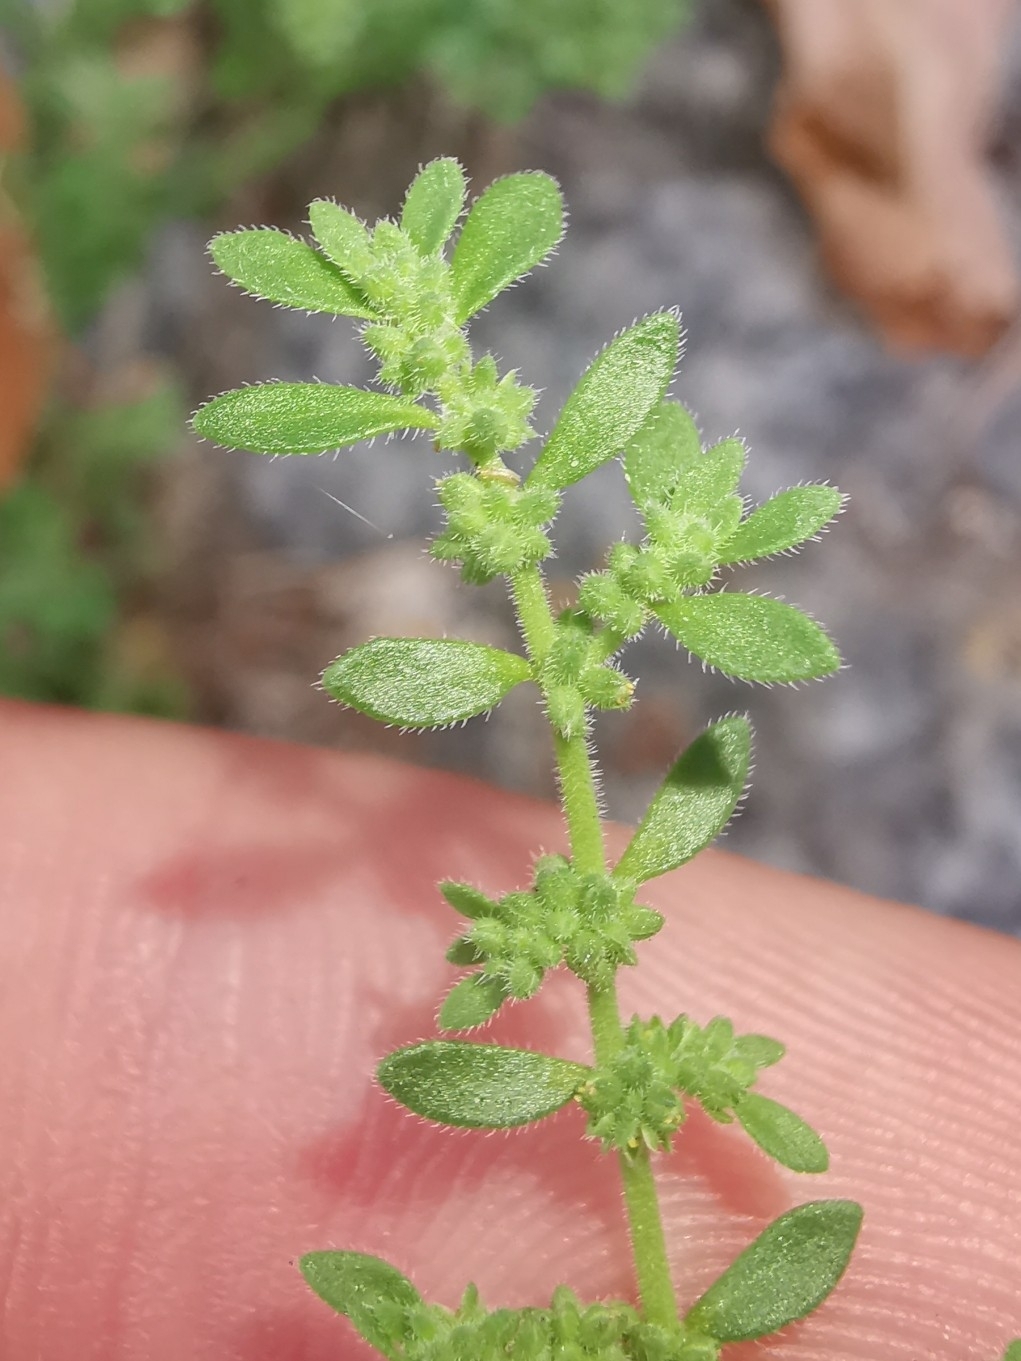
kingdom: Plantae
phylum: Tracheophyta
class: Magnoliopsida
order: Caryophyllales
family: Caryophyllaceae
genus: Herniaria
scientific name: Herniaria hirsuta
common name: Hairy rupturewort
